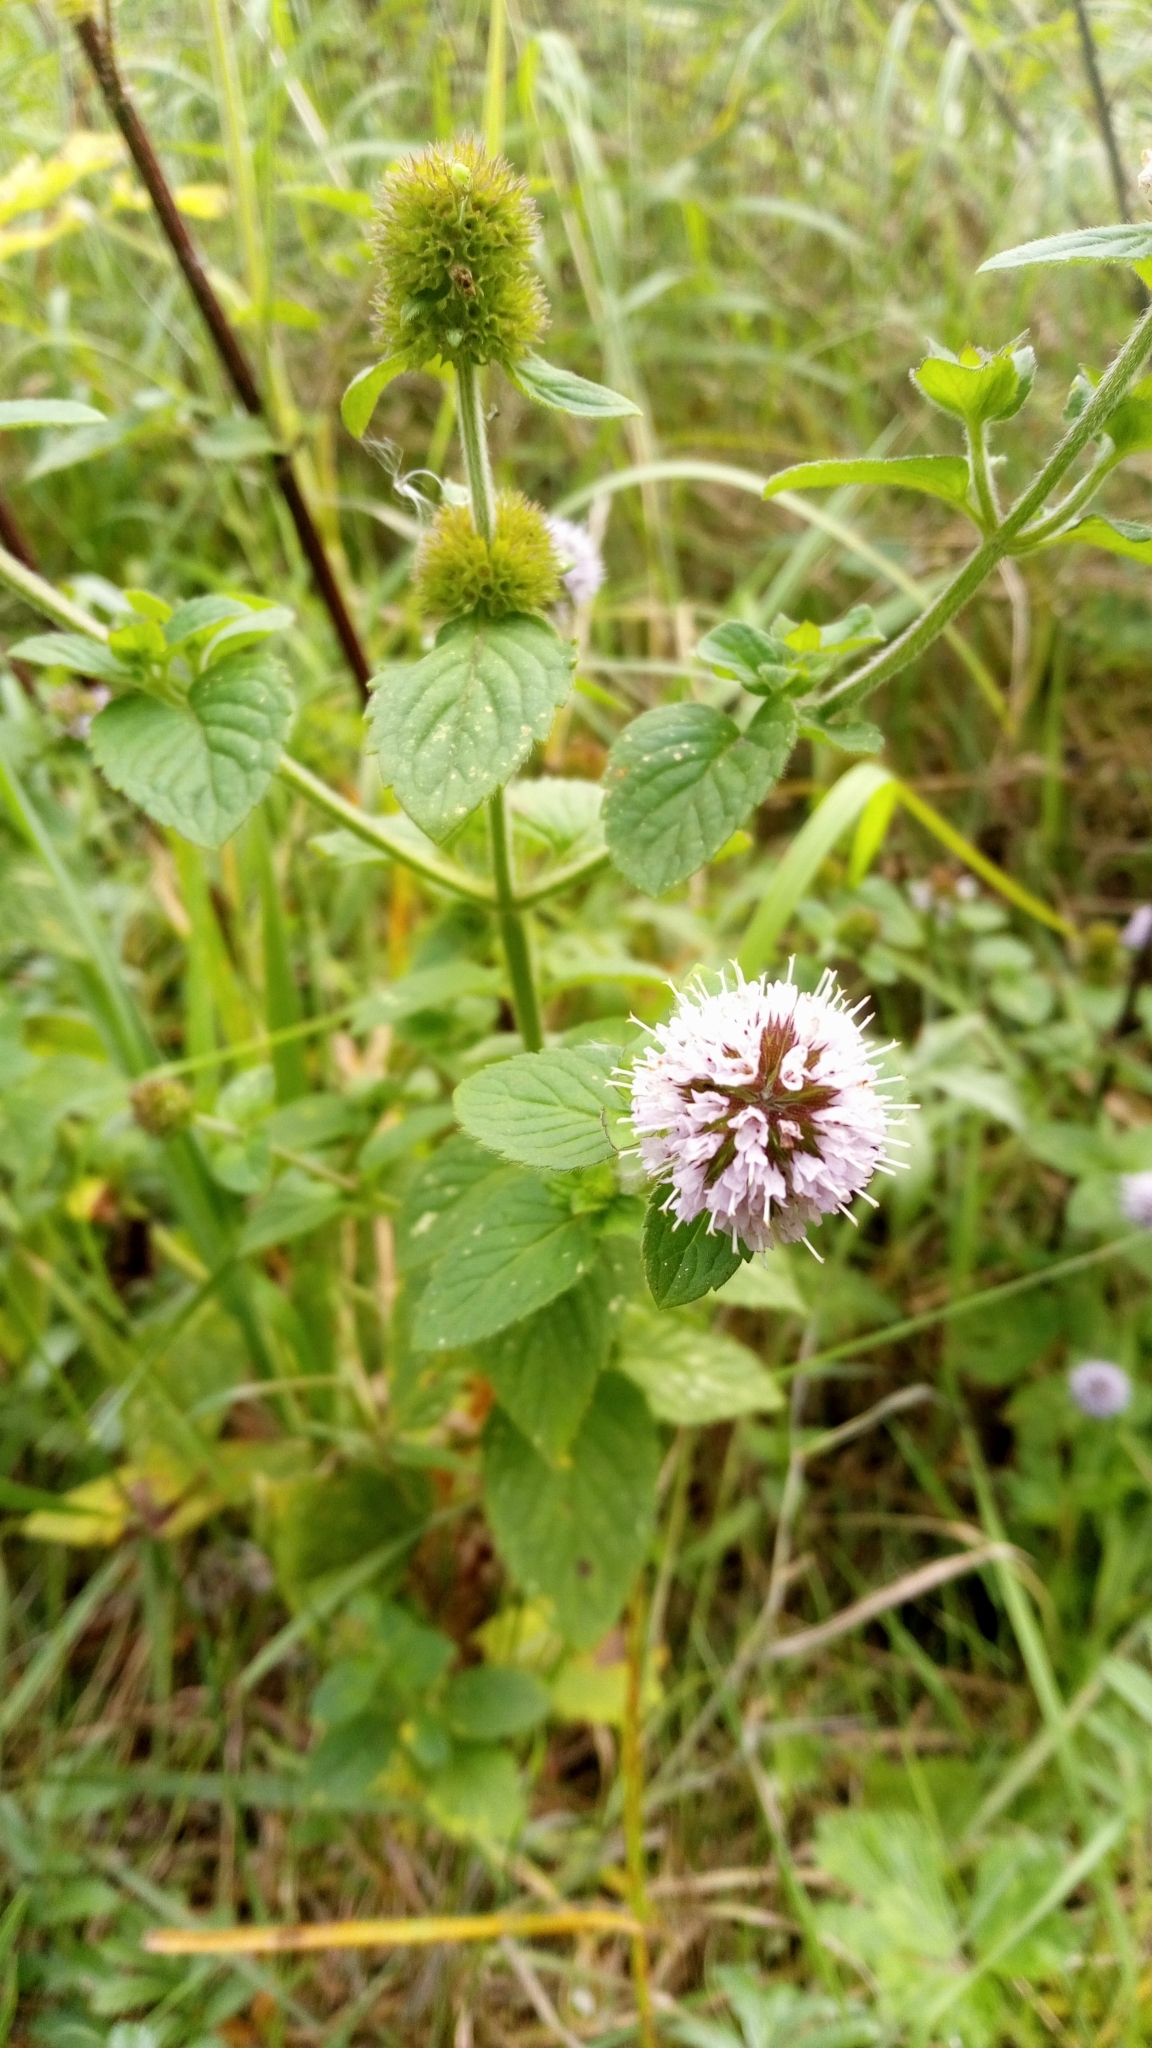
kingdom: Plantae
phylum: Tracheophyta
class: Magnoliopsida
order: Lamiales
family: Lamiaceae
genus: Mentha
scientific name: Mentha aquatica
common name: Water mint
